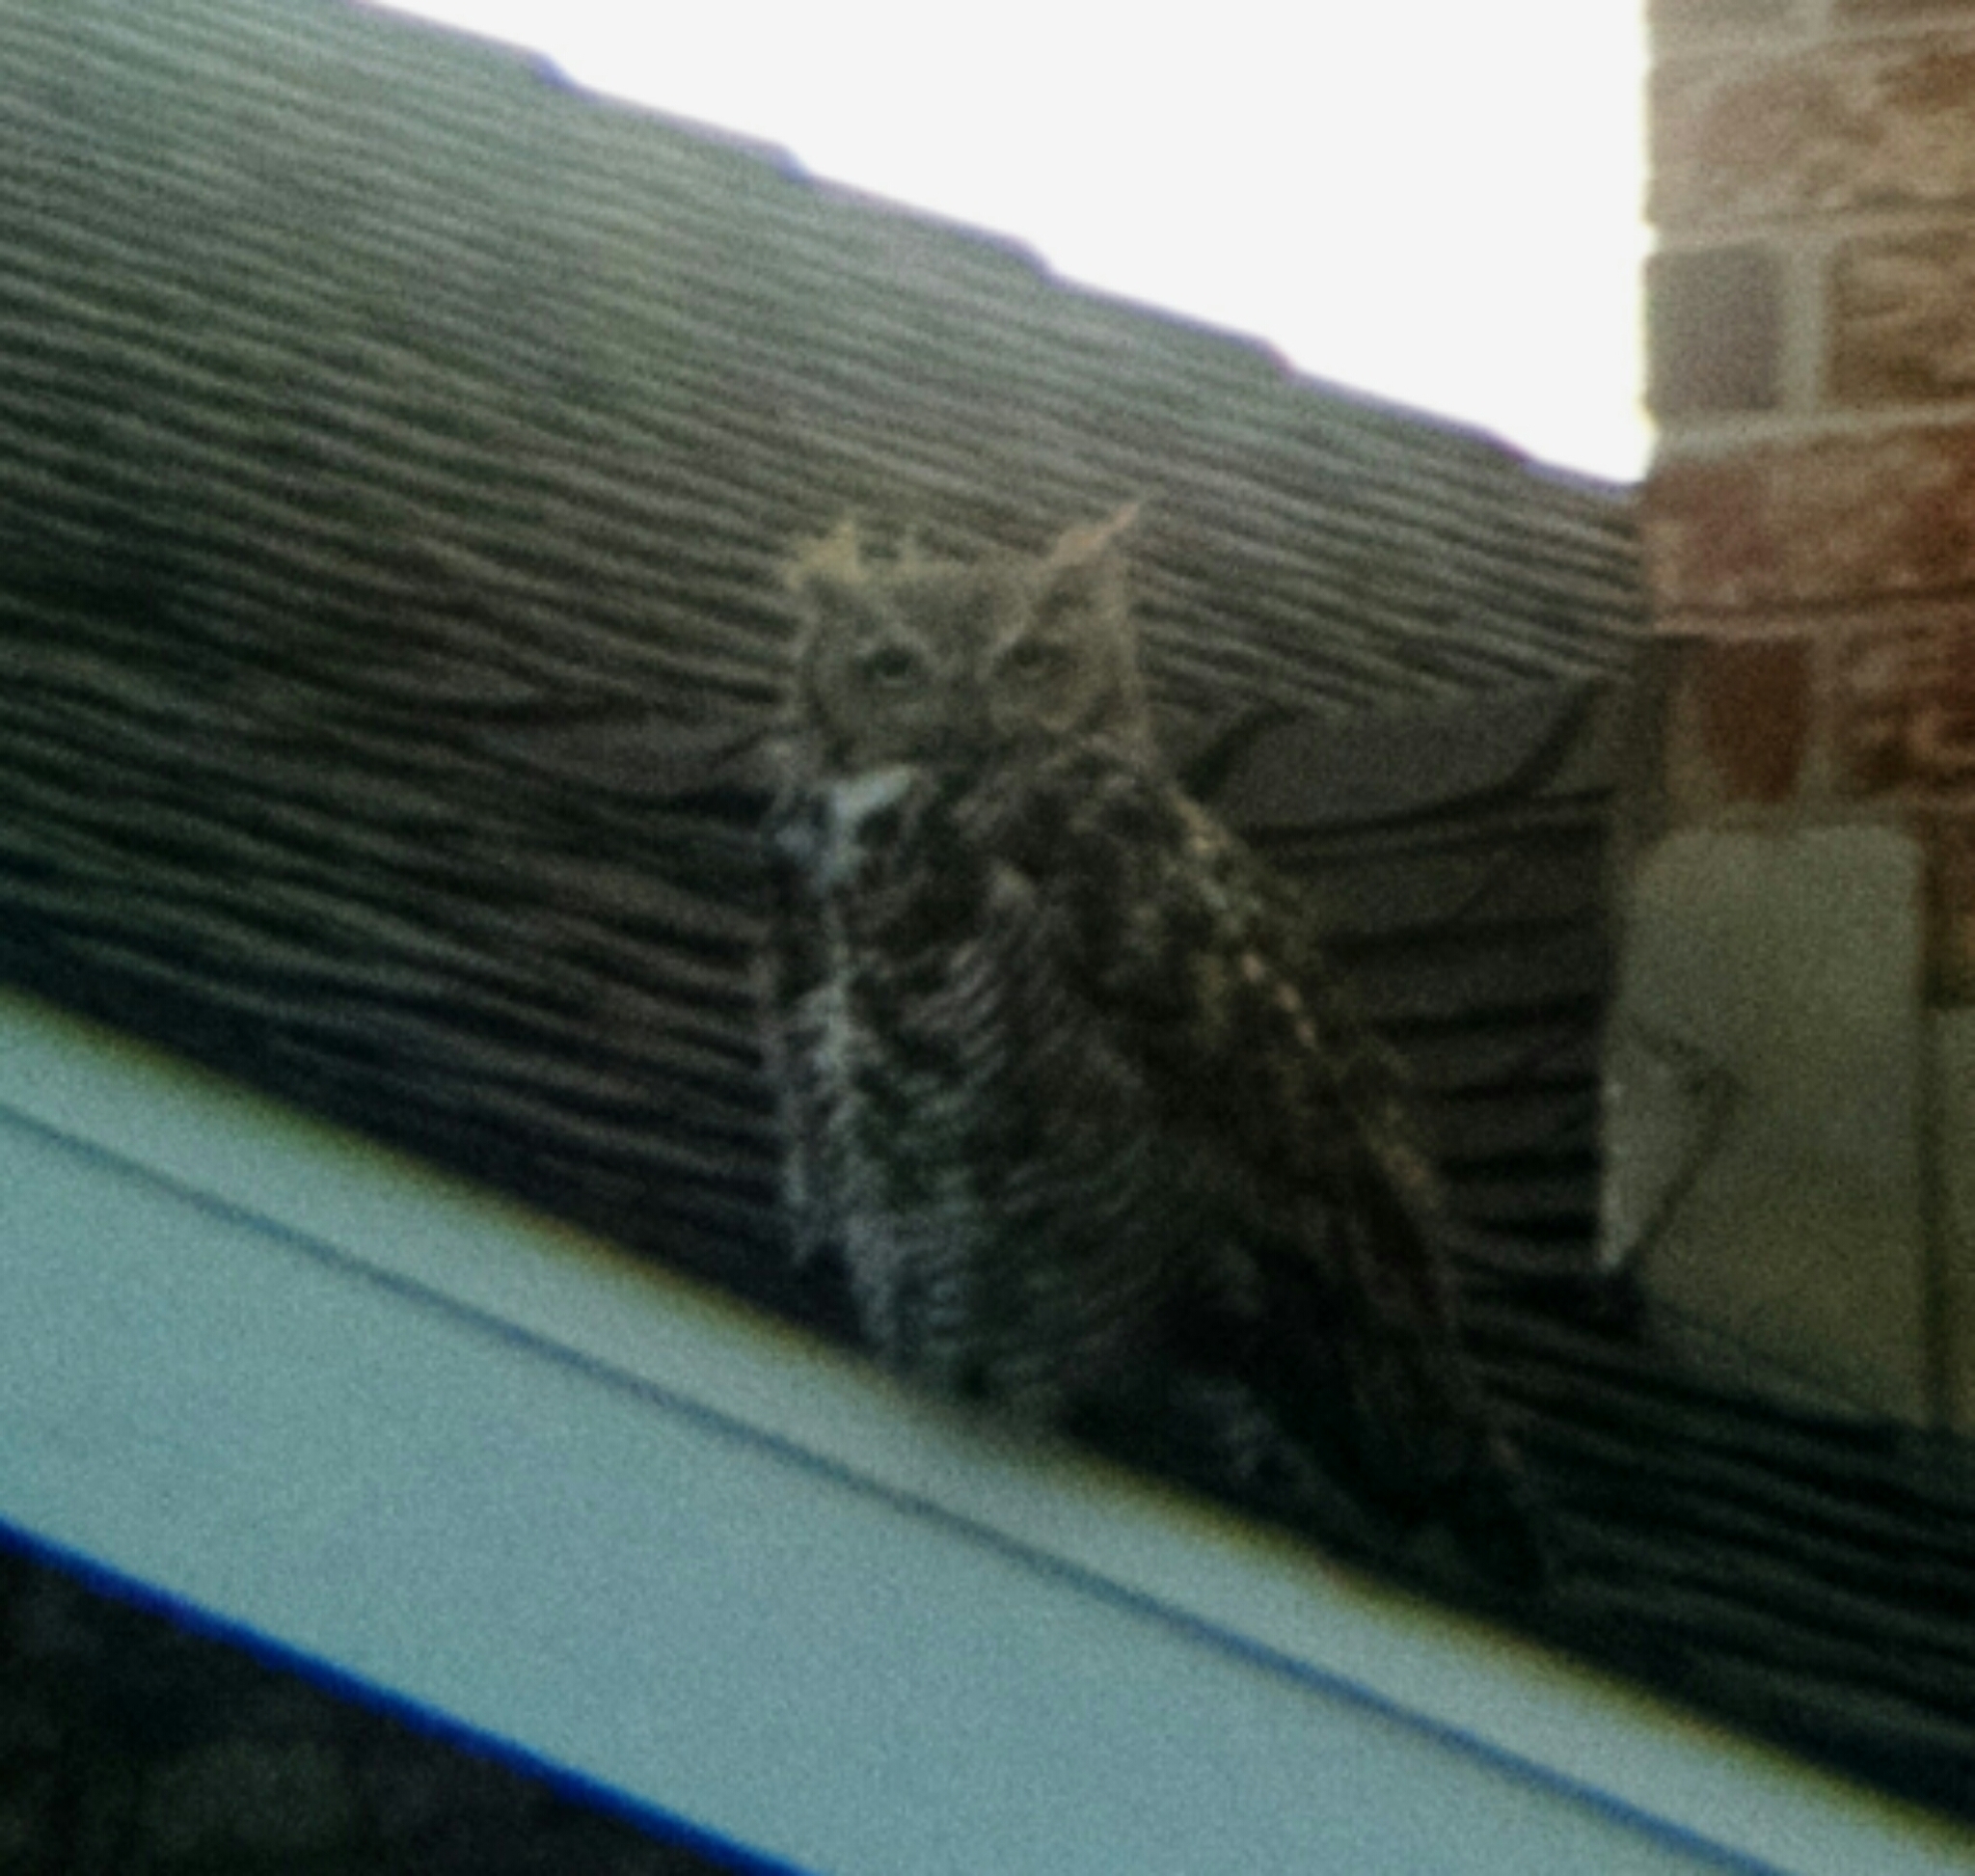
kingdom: Animalia
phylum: Chordata
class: Aves
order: Strigiformes
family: Strigidae
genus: Bubo
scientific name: Bubo virginianus
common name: Great horned owl
